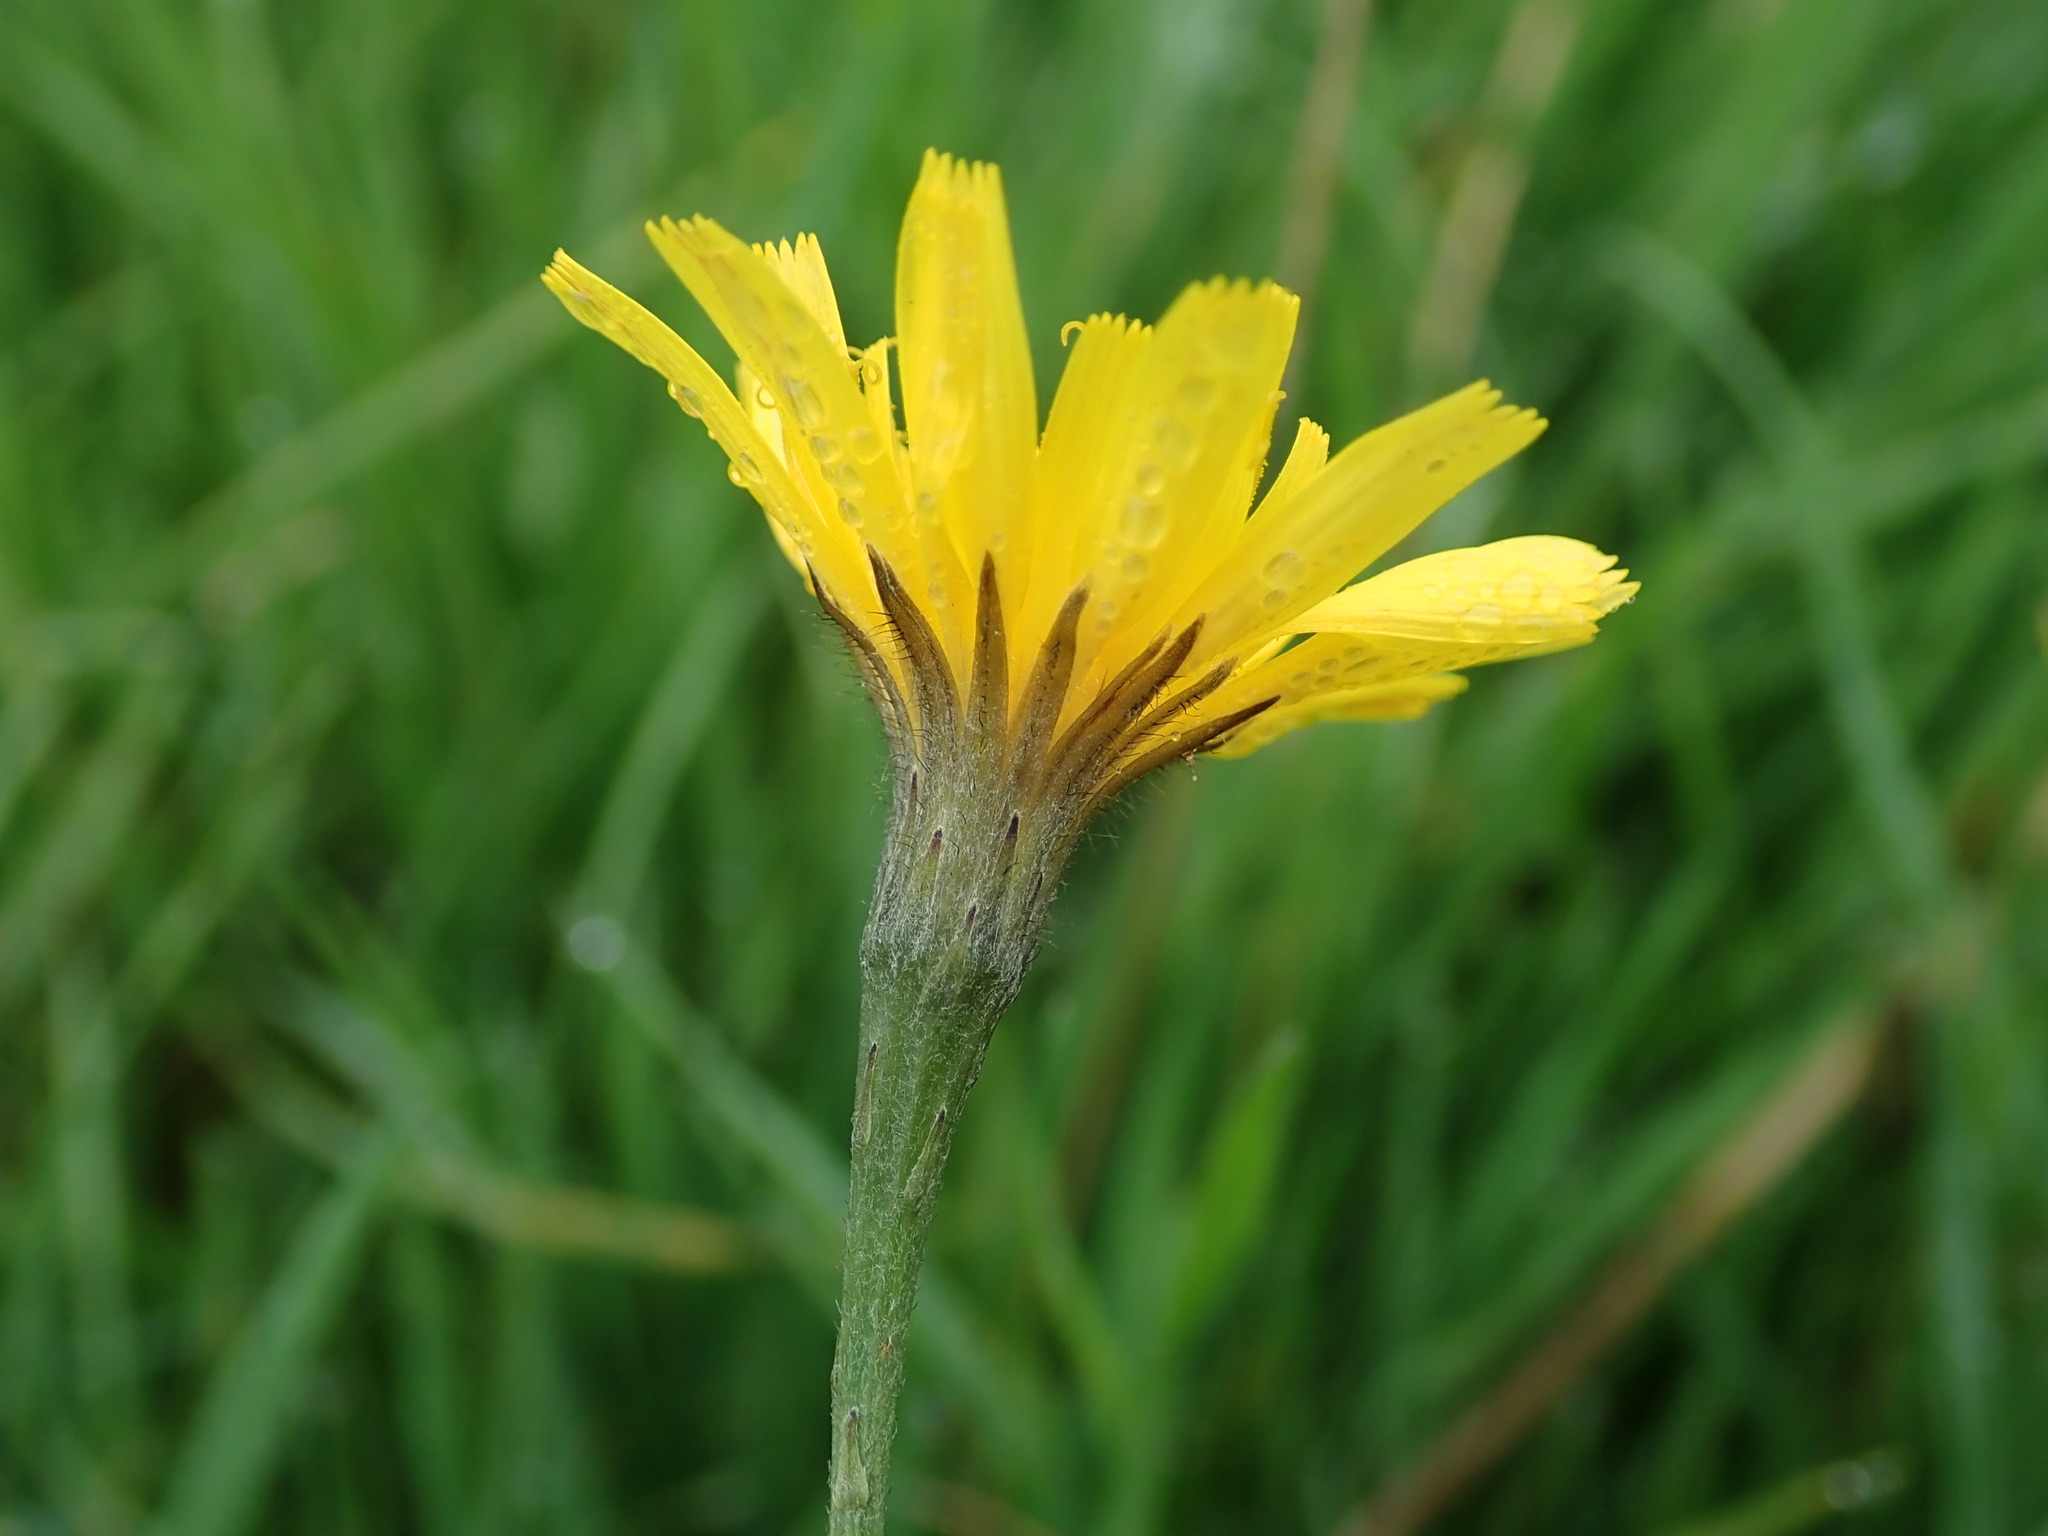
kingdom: Plantae
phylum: Tracheophyta
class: Magnoliopsida
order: Asterales
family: Asteraceae
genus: Scorzoneroides
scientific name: Scorzoneroides autumnalis
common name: Autumn hawkbit
